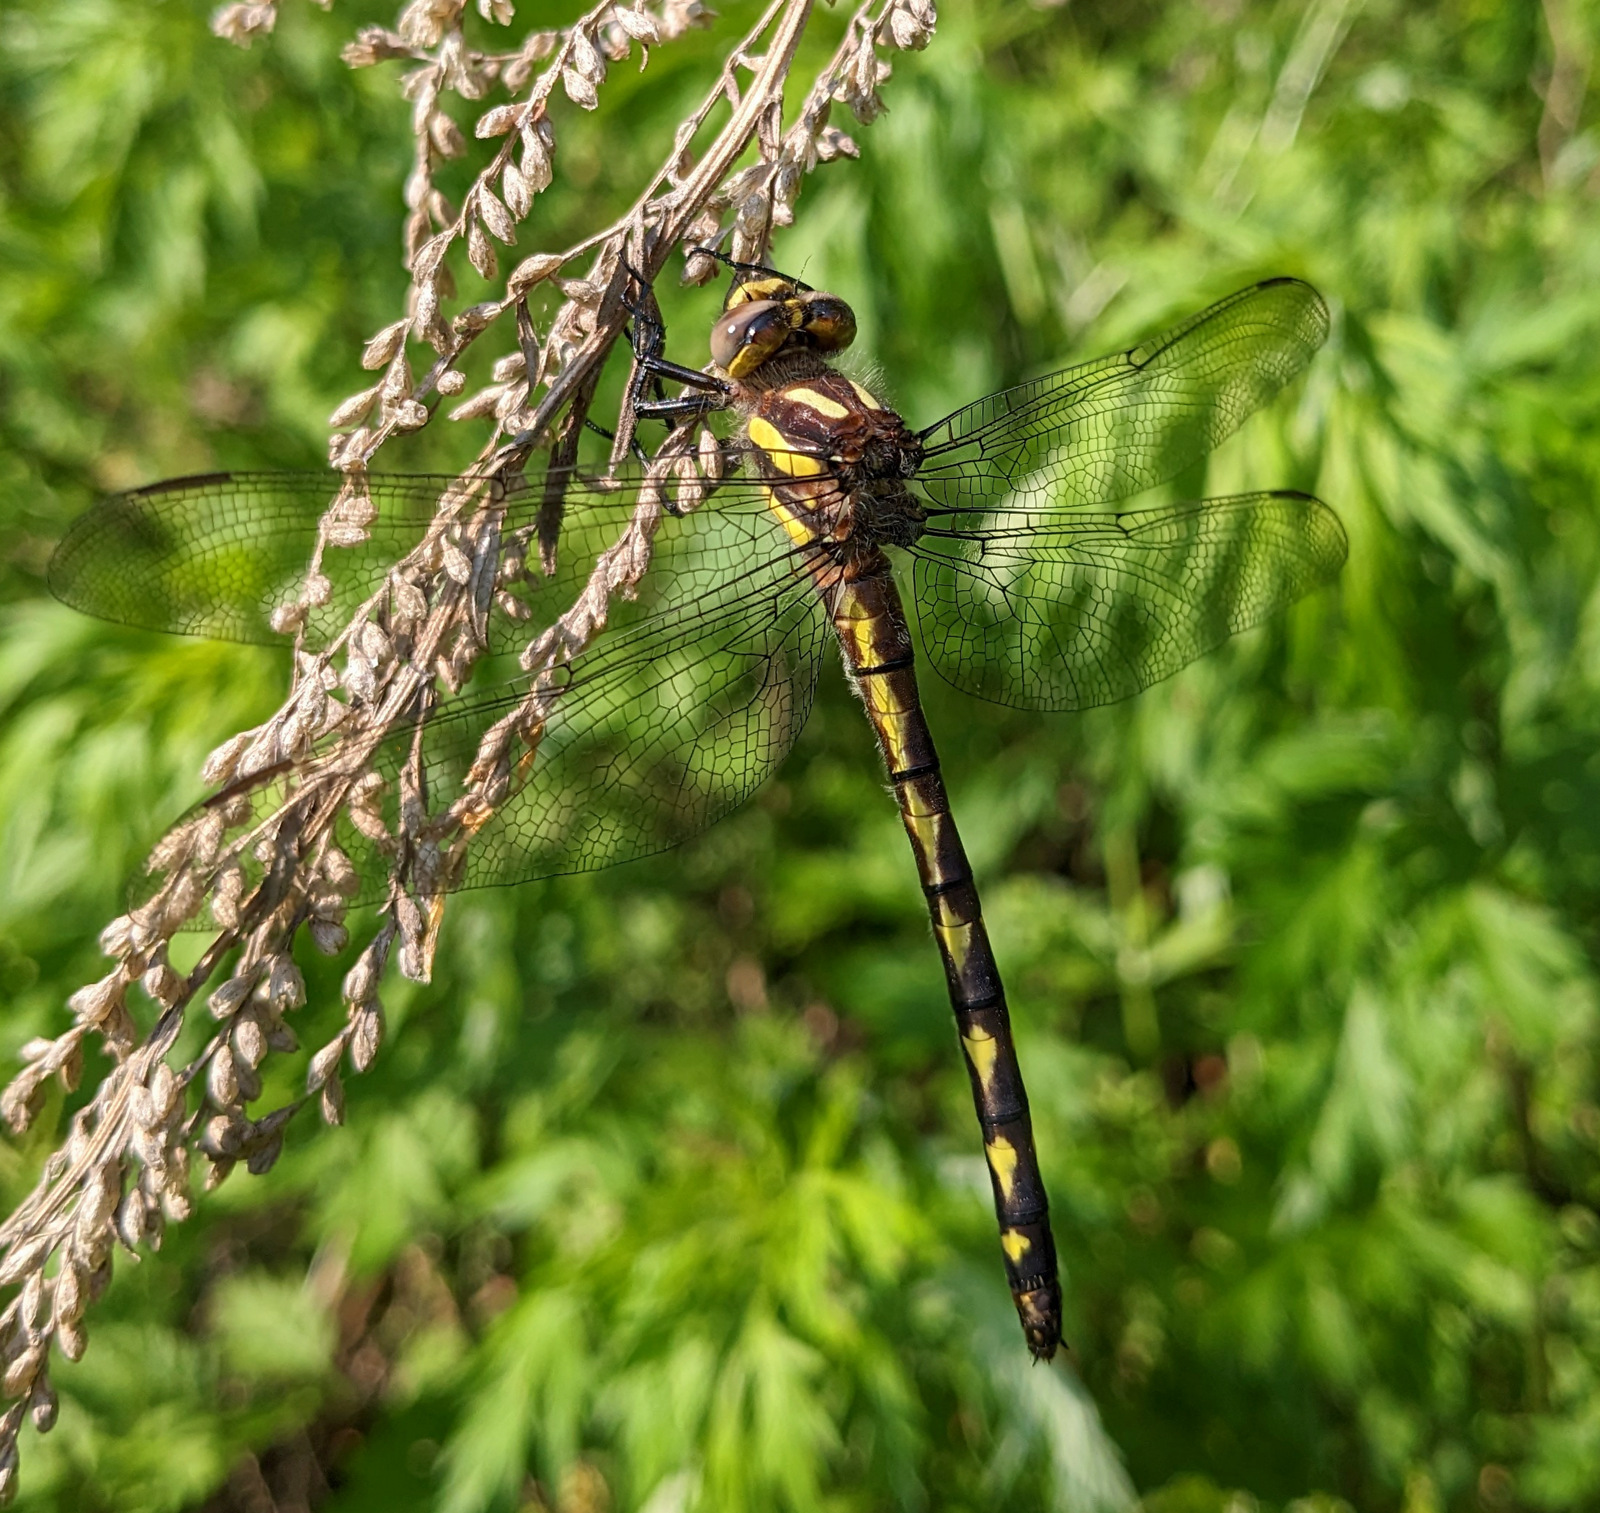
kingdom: Animalia
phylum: Arthropoda
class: Insecta
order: Odonata
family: Cordulegastridae
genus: Cordulegaster
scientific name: Cordulegaster diastatops
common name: Delta-spotted spiketail
